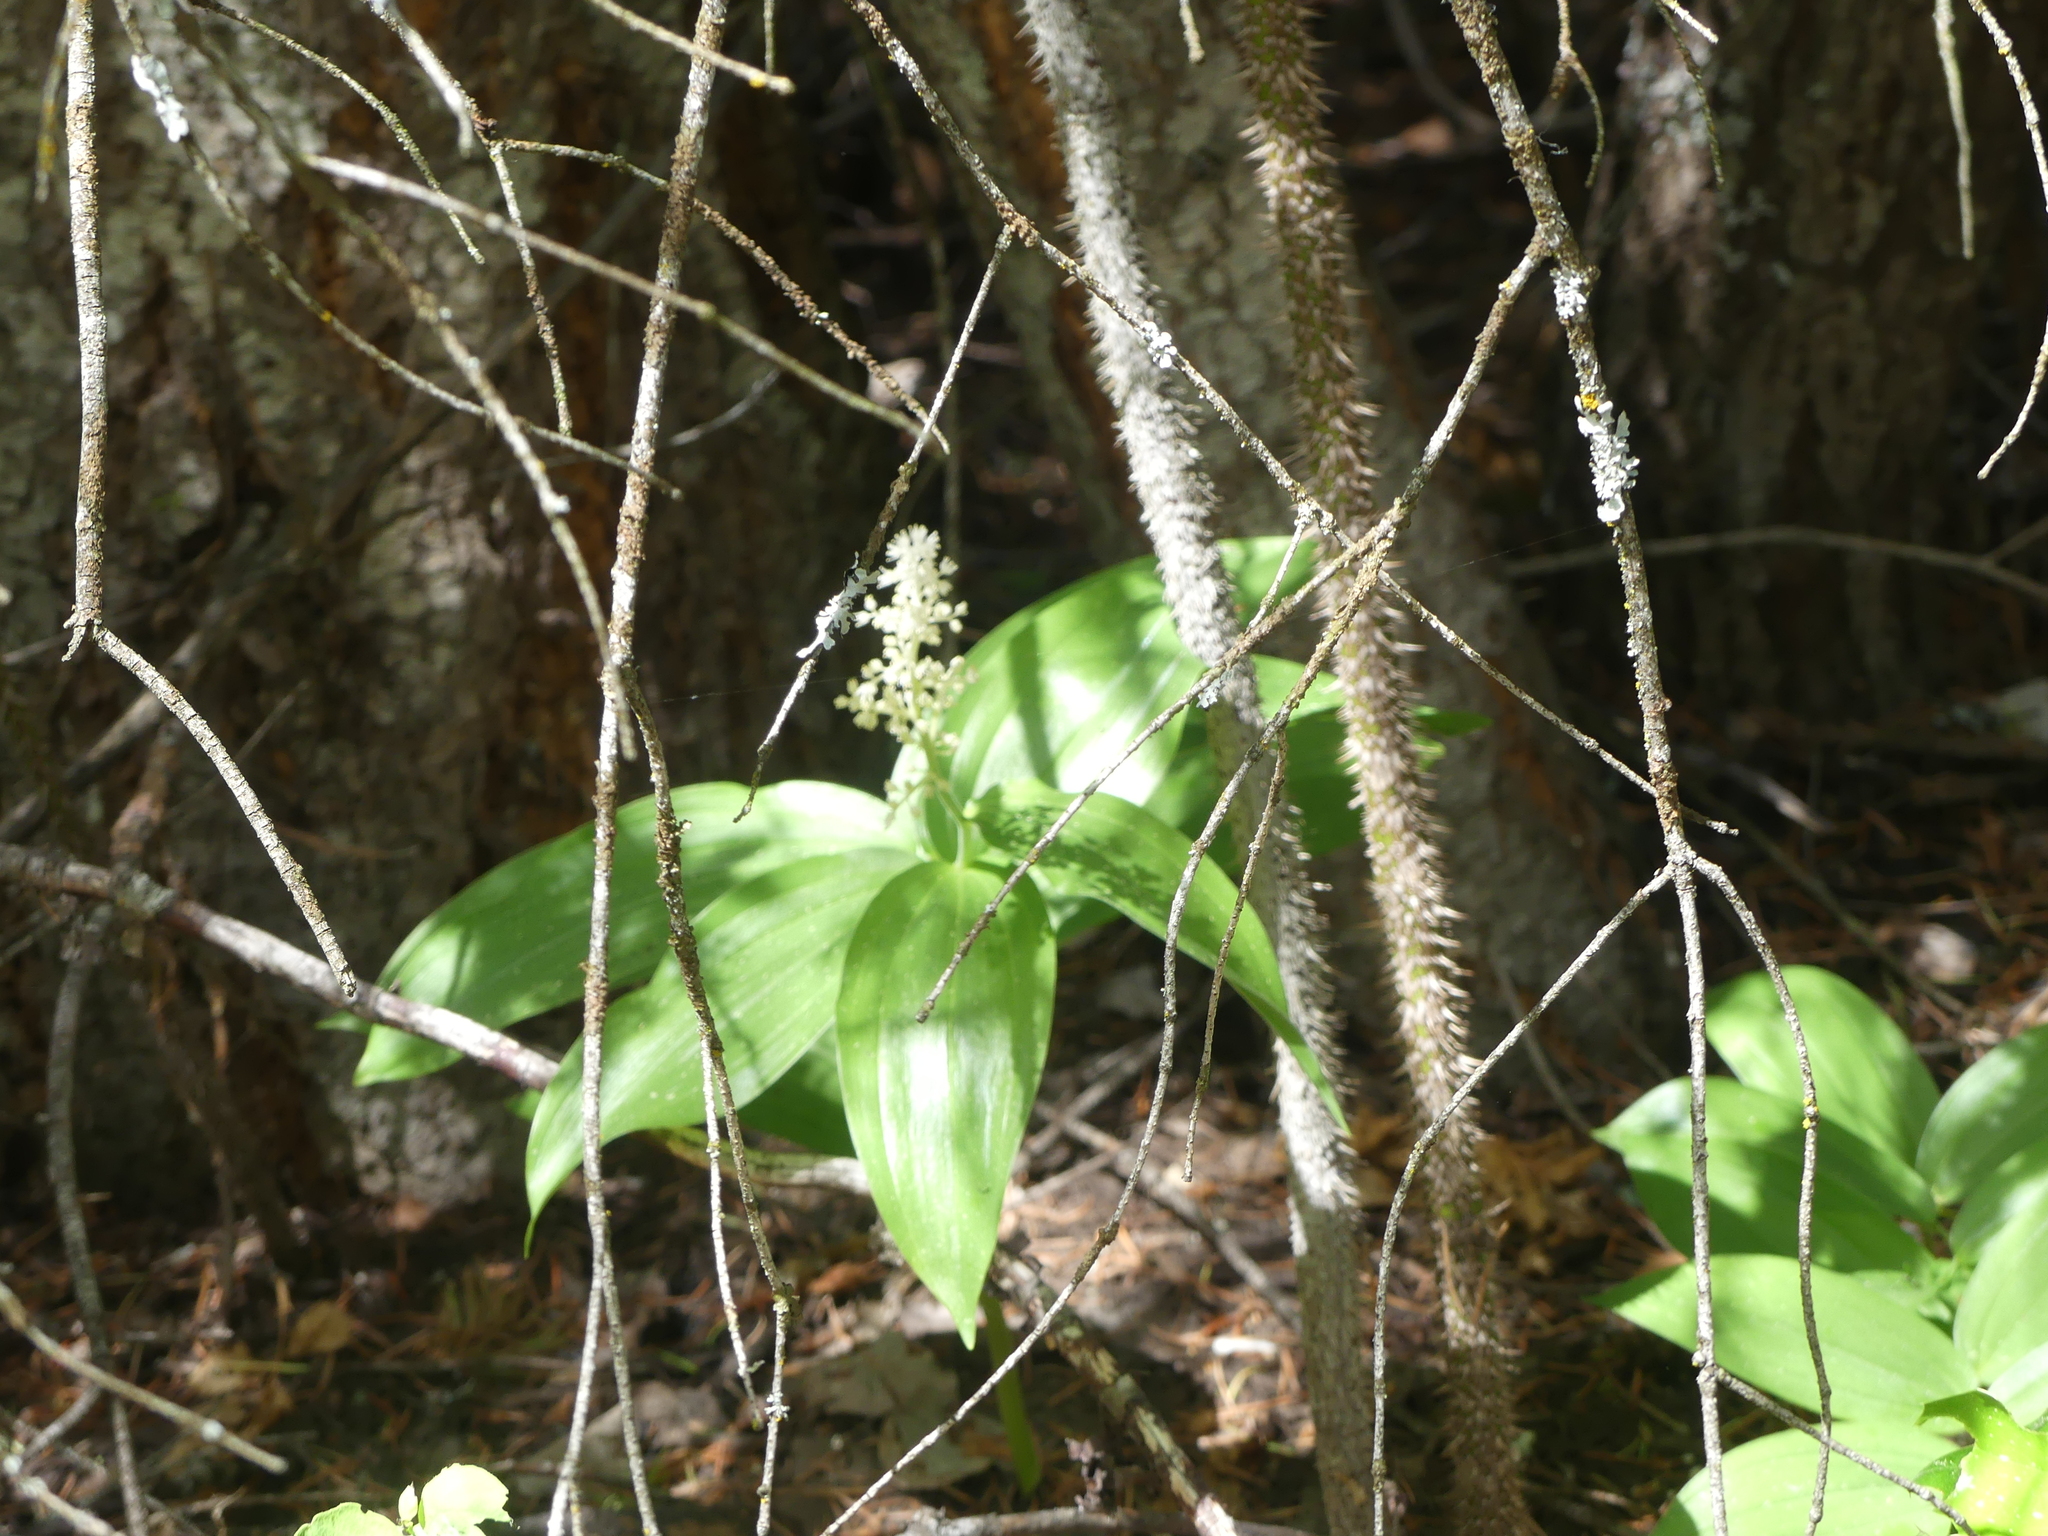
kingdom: Plantae
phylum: Tracheophyta
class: Liliopsida
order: Asparagales
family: Asparagaceae
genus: Maianthemum
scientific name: Maianthemum racemosum
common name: False spikenard
